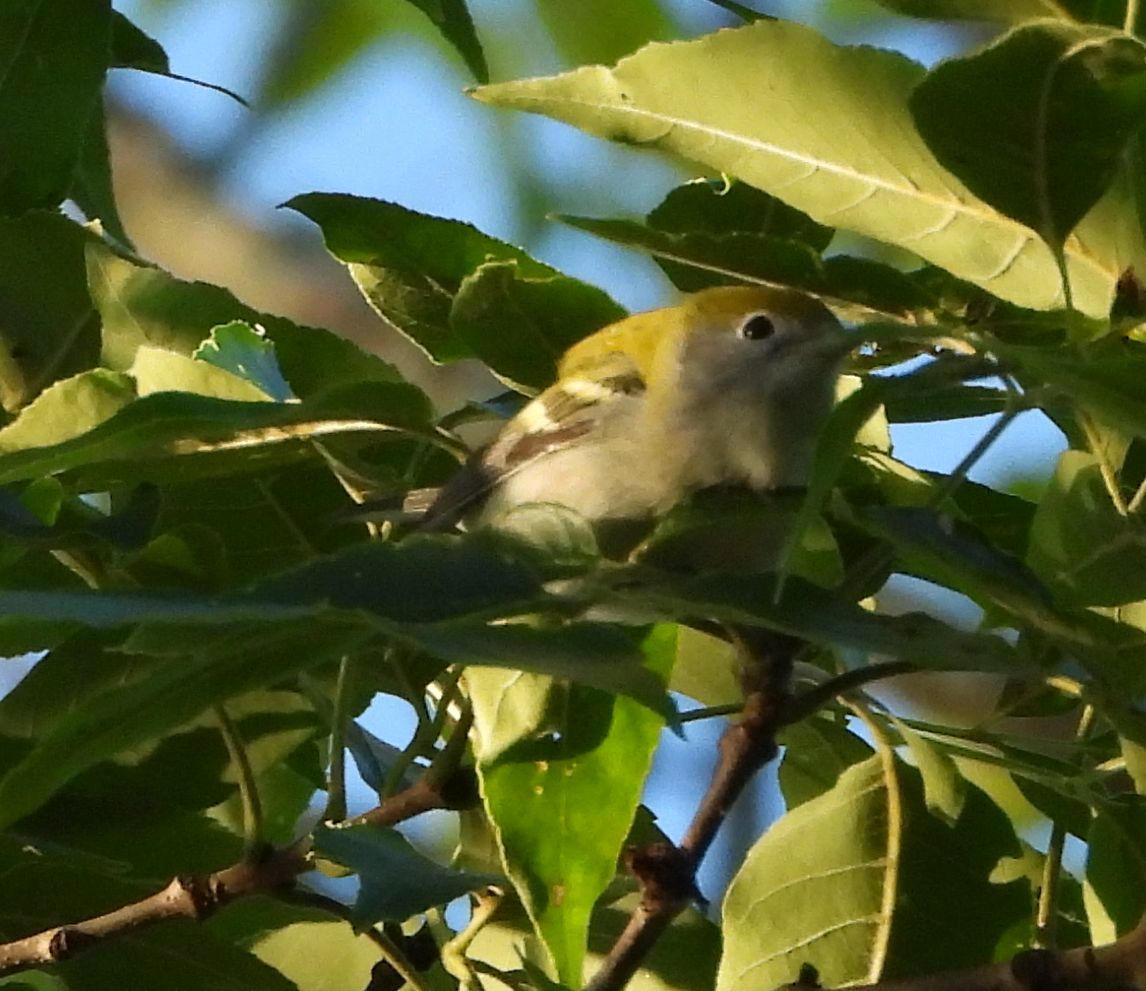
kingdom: Animalia
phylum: Chordata
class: Aves
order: Passeriformes
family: Parulidae
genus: Setophaga
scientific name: Setophaga pensylvanica
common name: Chestnut-sided warbler
